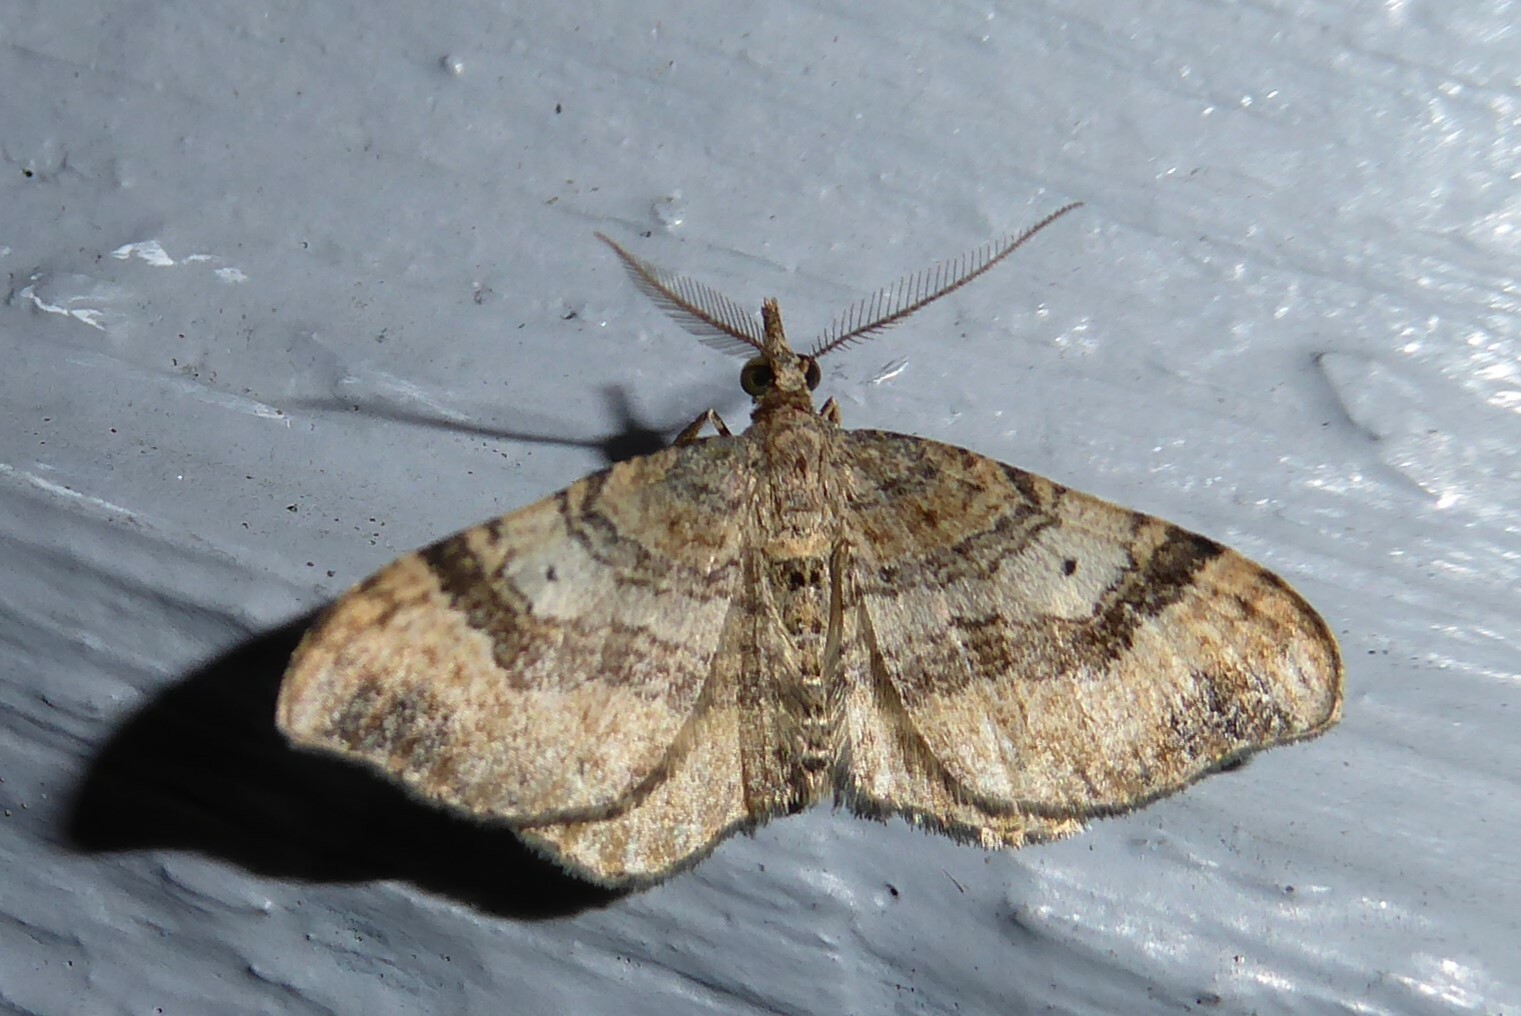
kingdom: Animalia
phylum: Arthropoda
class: Insecta
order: Lepidoptera
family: Geometridae
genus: Homodotis
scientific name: Homodotis megaspilata
